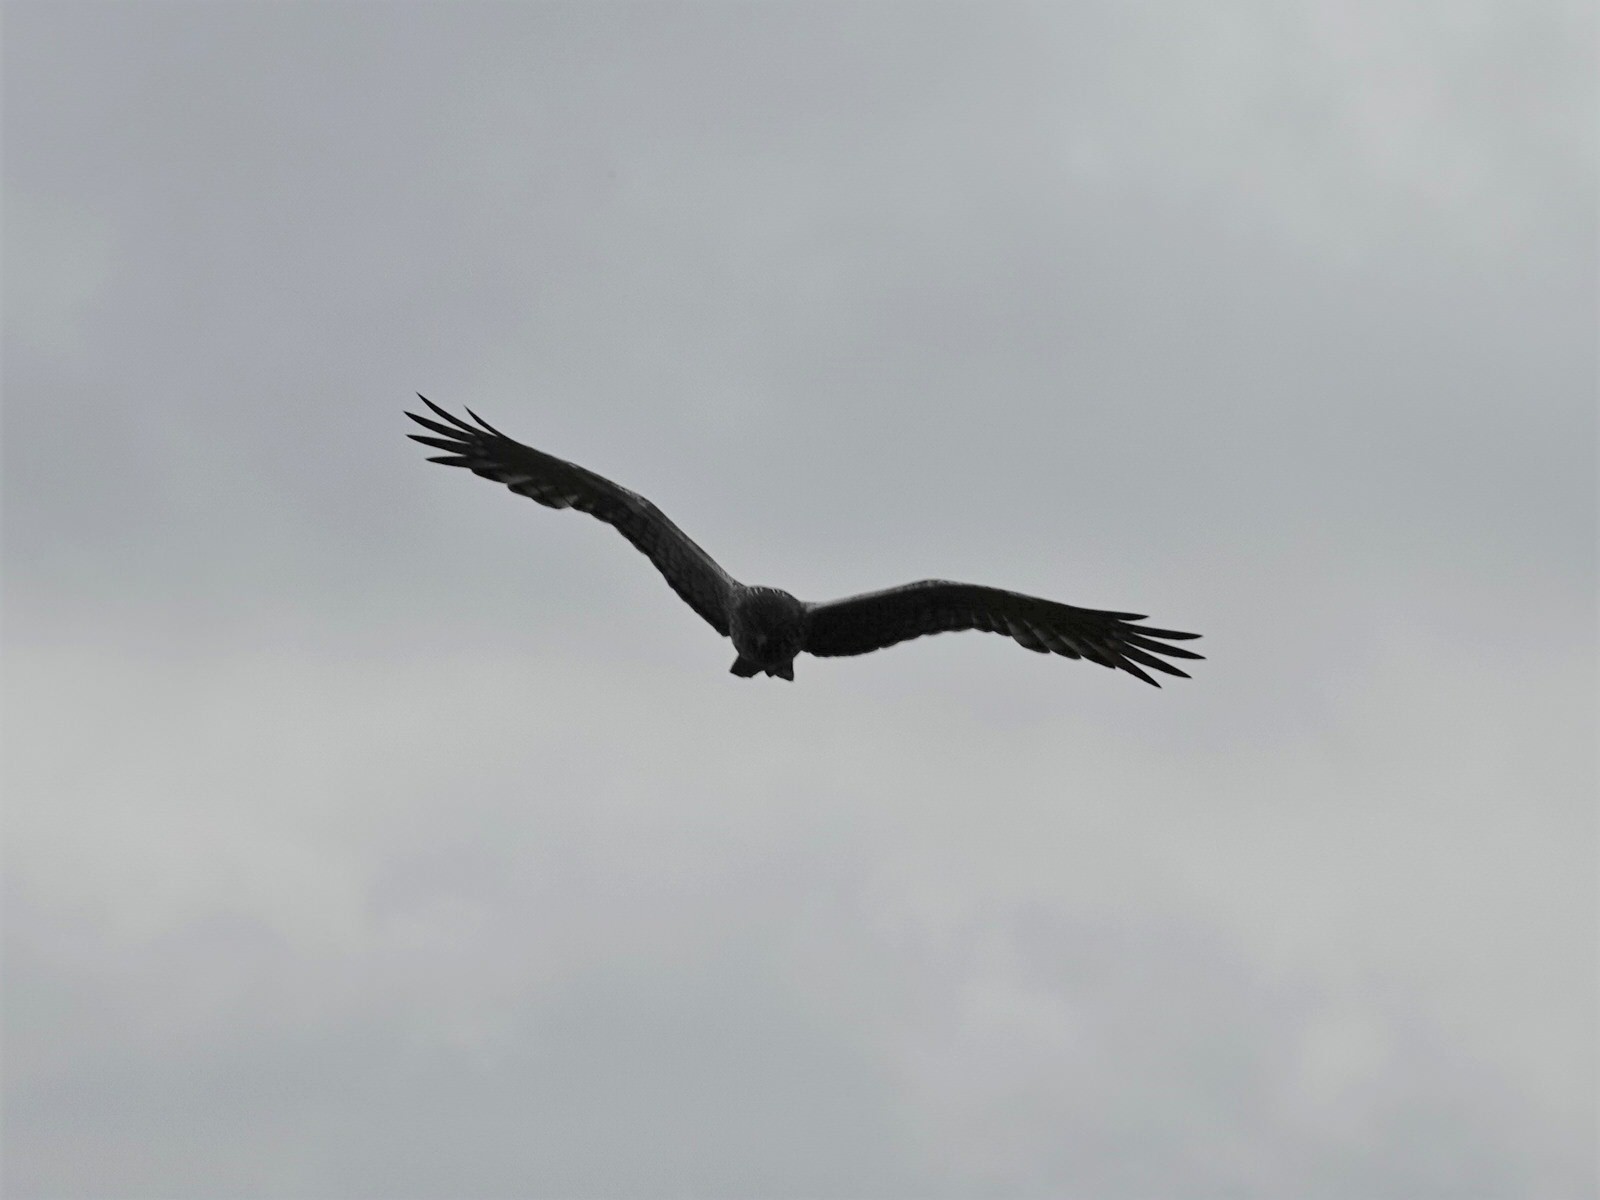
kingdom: Animalia
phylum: Chordata
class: Aves
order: Accipitriformes
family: Accipitridae
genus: Circus
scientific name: Circus approximans
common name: Swamp harrier
